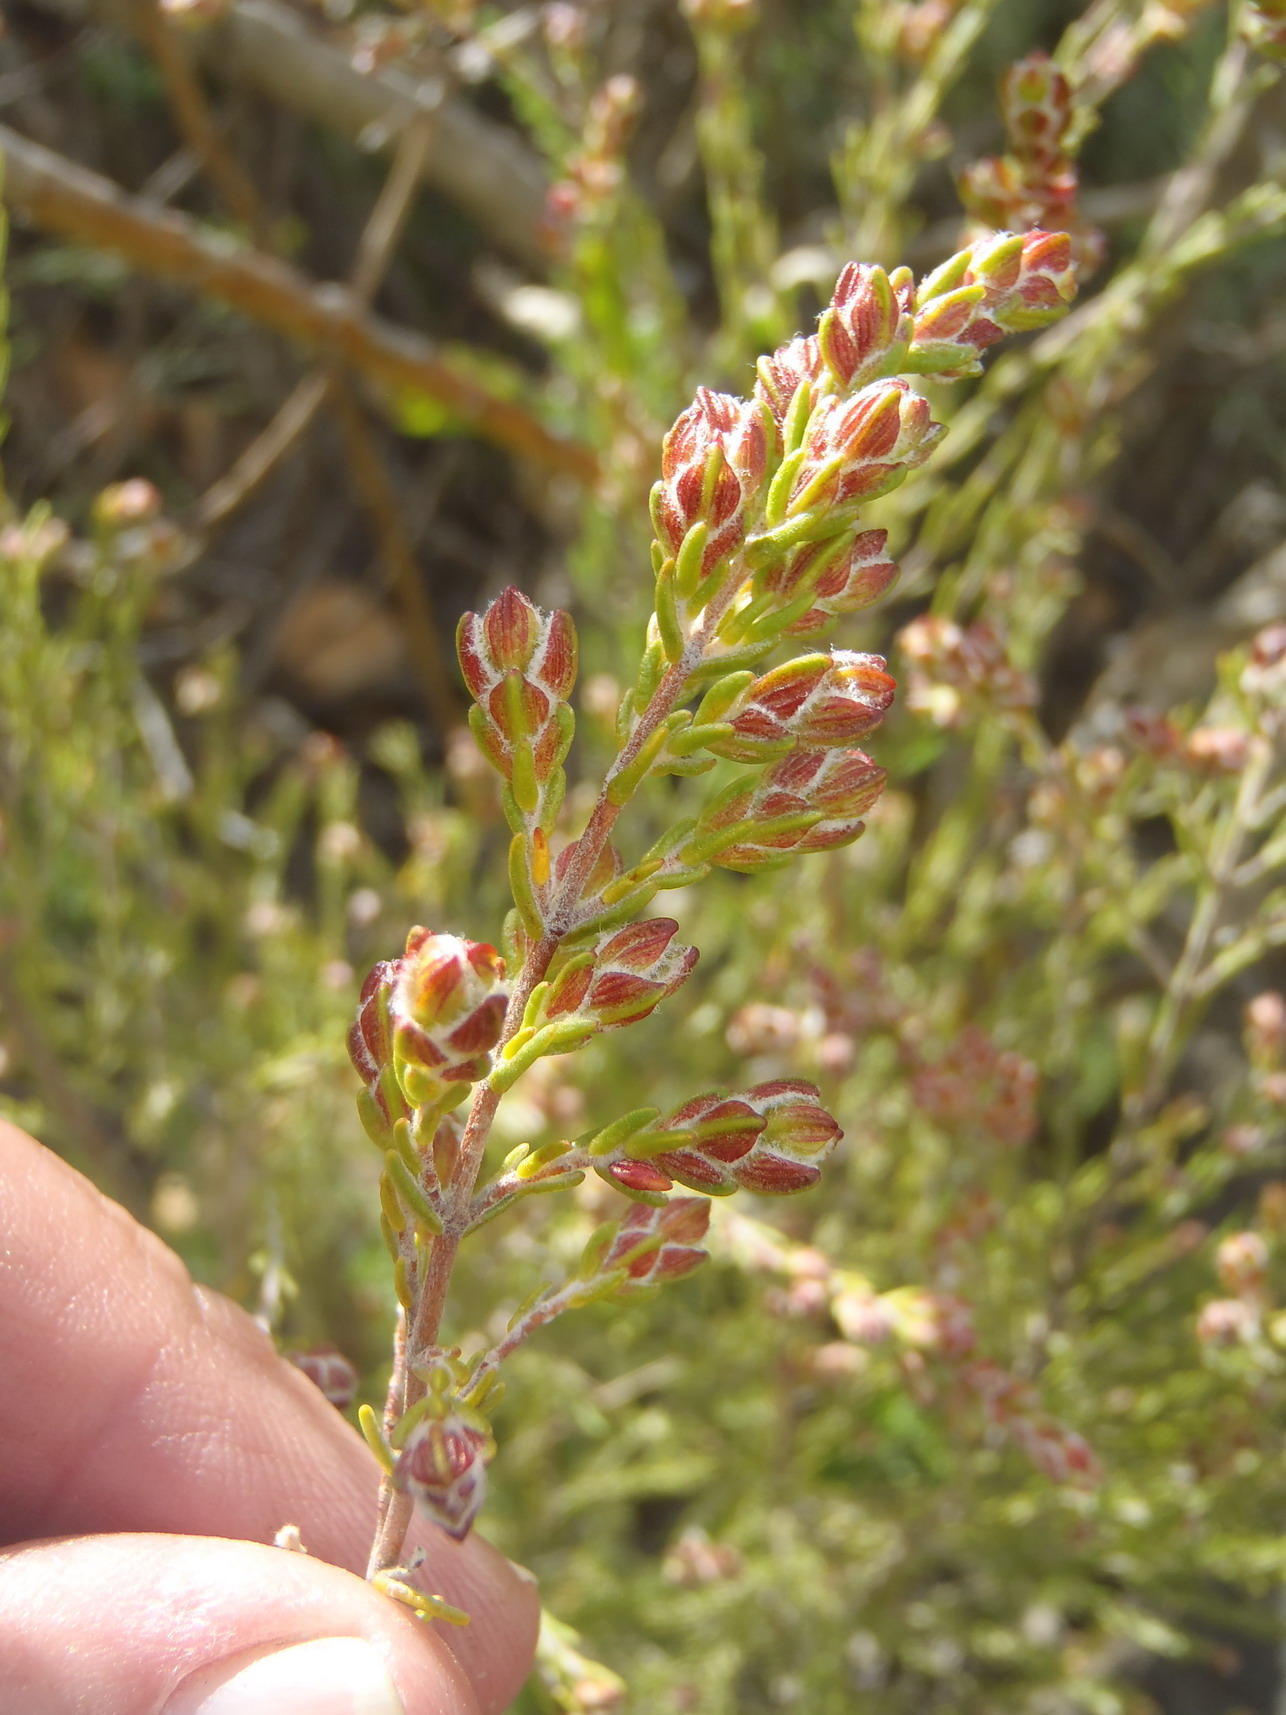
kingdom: Plantae
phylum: Tracheophyta
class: Magnoliopsida
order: Malvales
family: Thymelaeaceae
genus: Passerina
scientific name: Passerina obtusifolia
